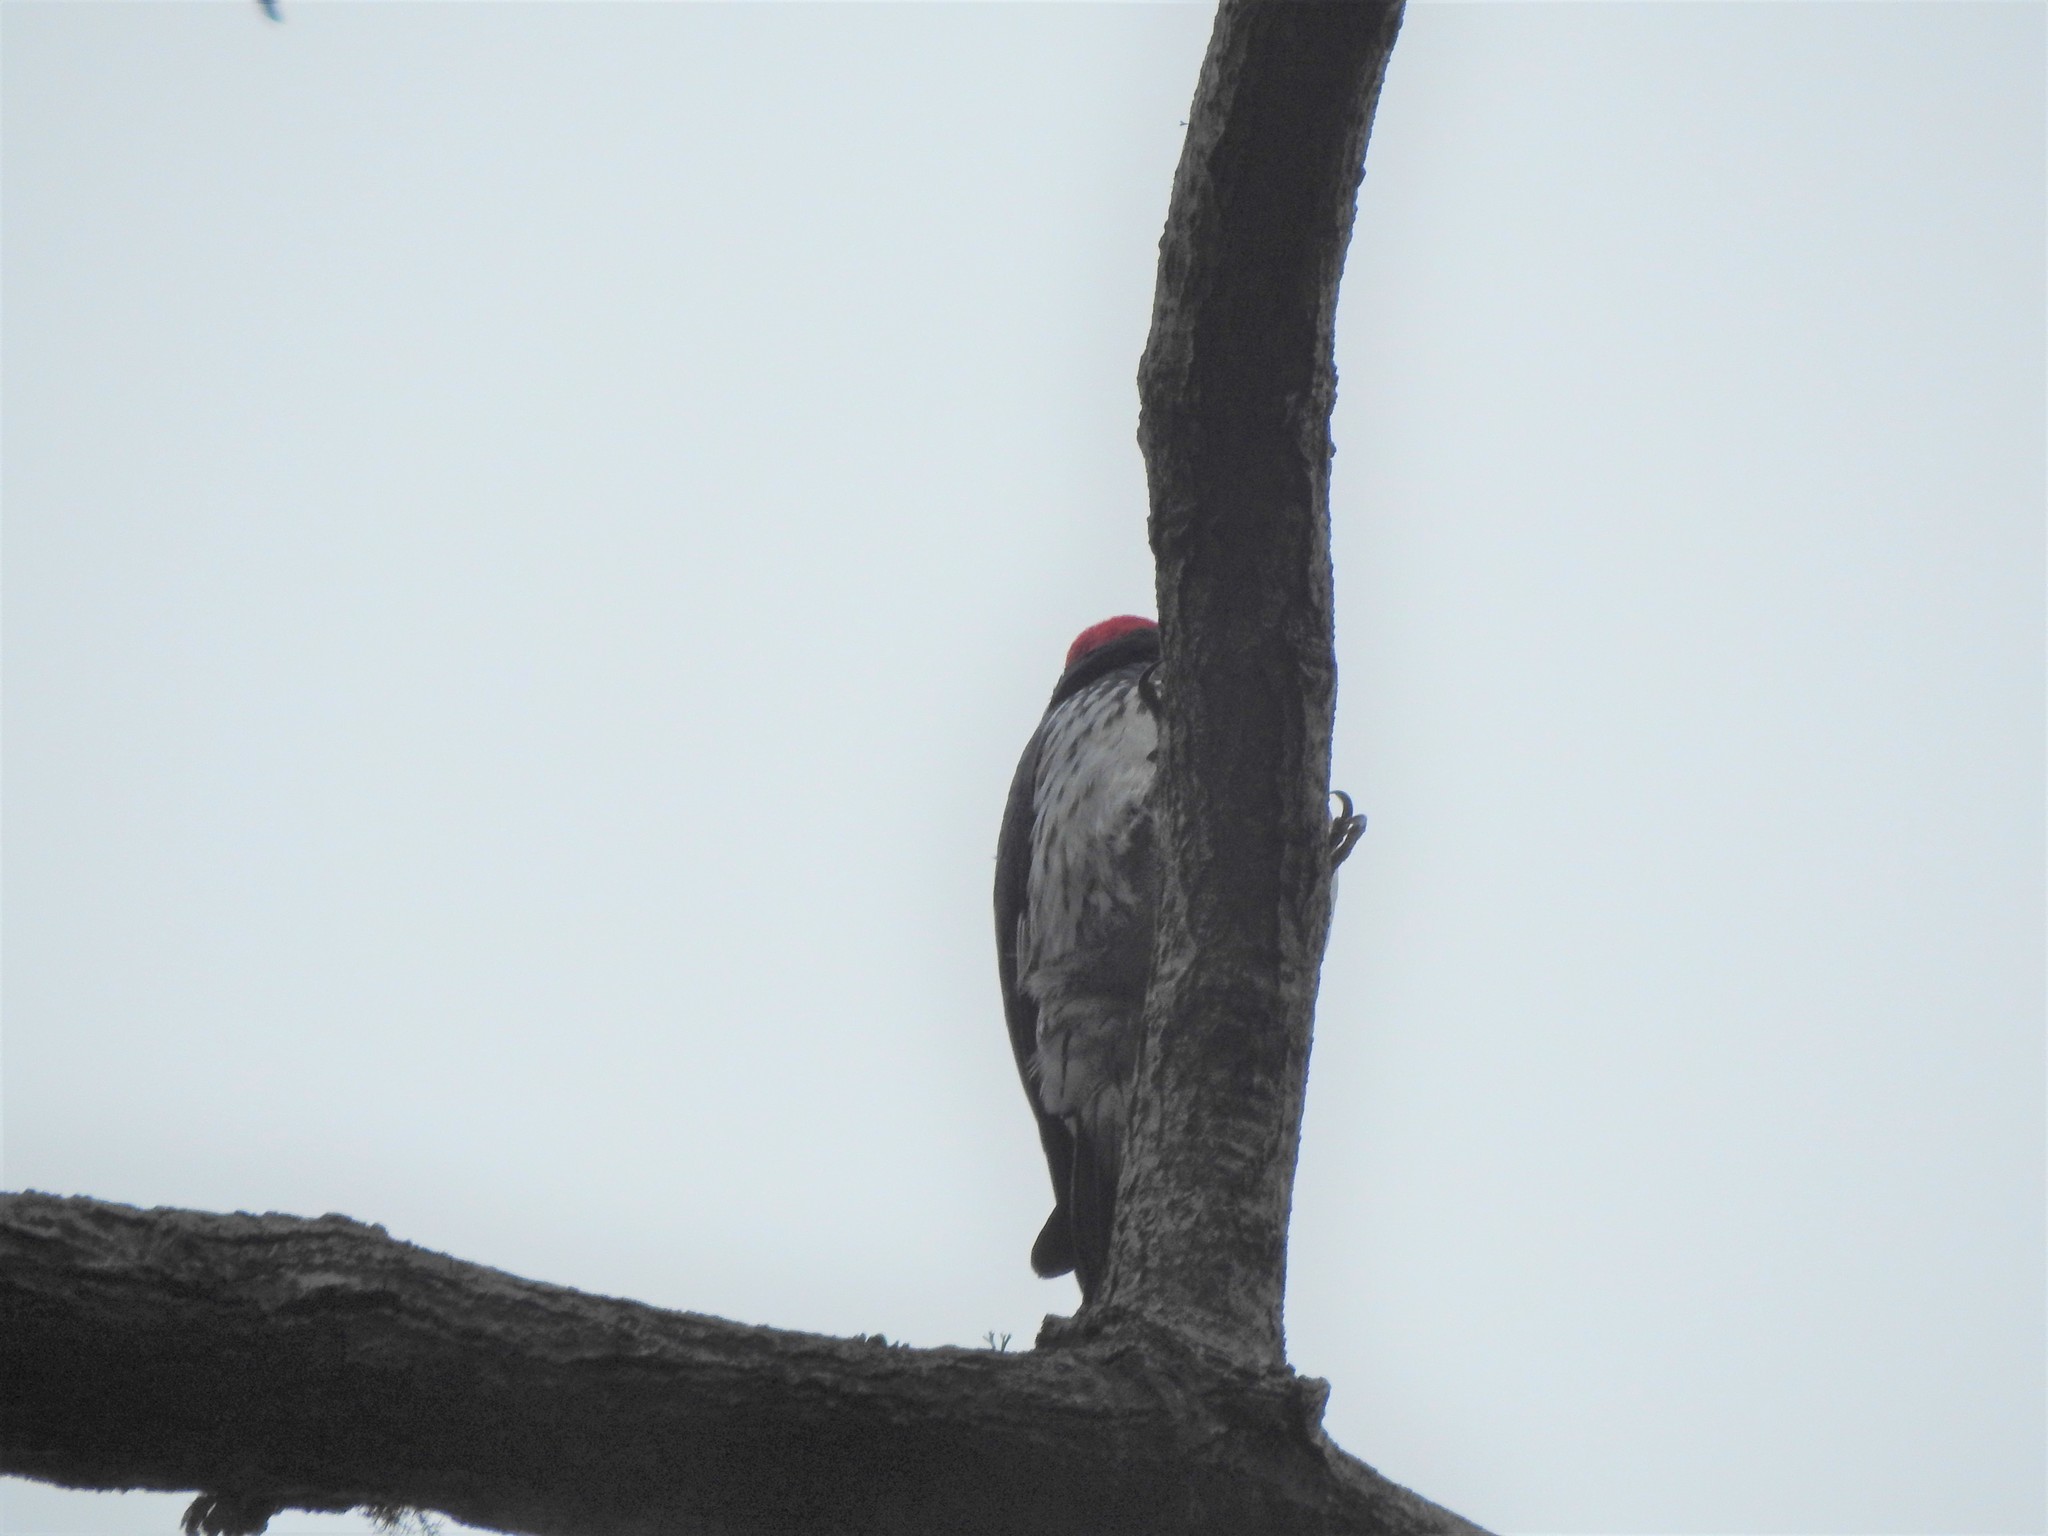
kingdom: Animalia
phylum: Chordata
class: Aves
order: Piciformes
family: Picidae
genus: Melanerpes
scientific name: Melanerpes formicivorus
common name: Acorn woodpecker
